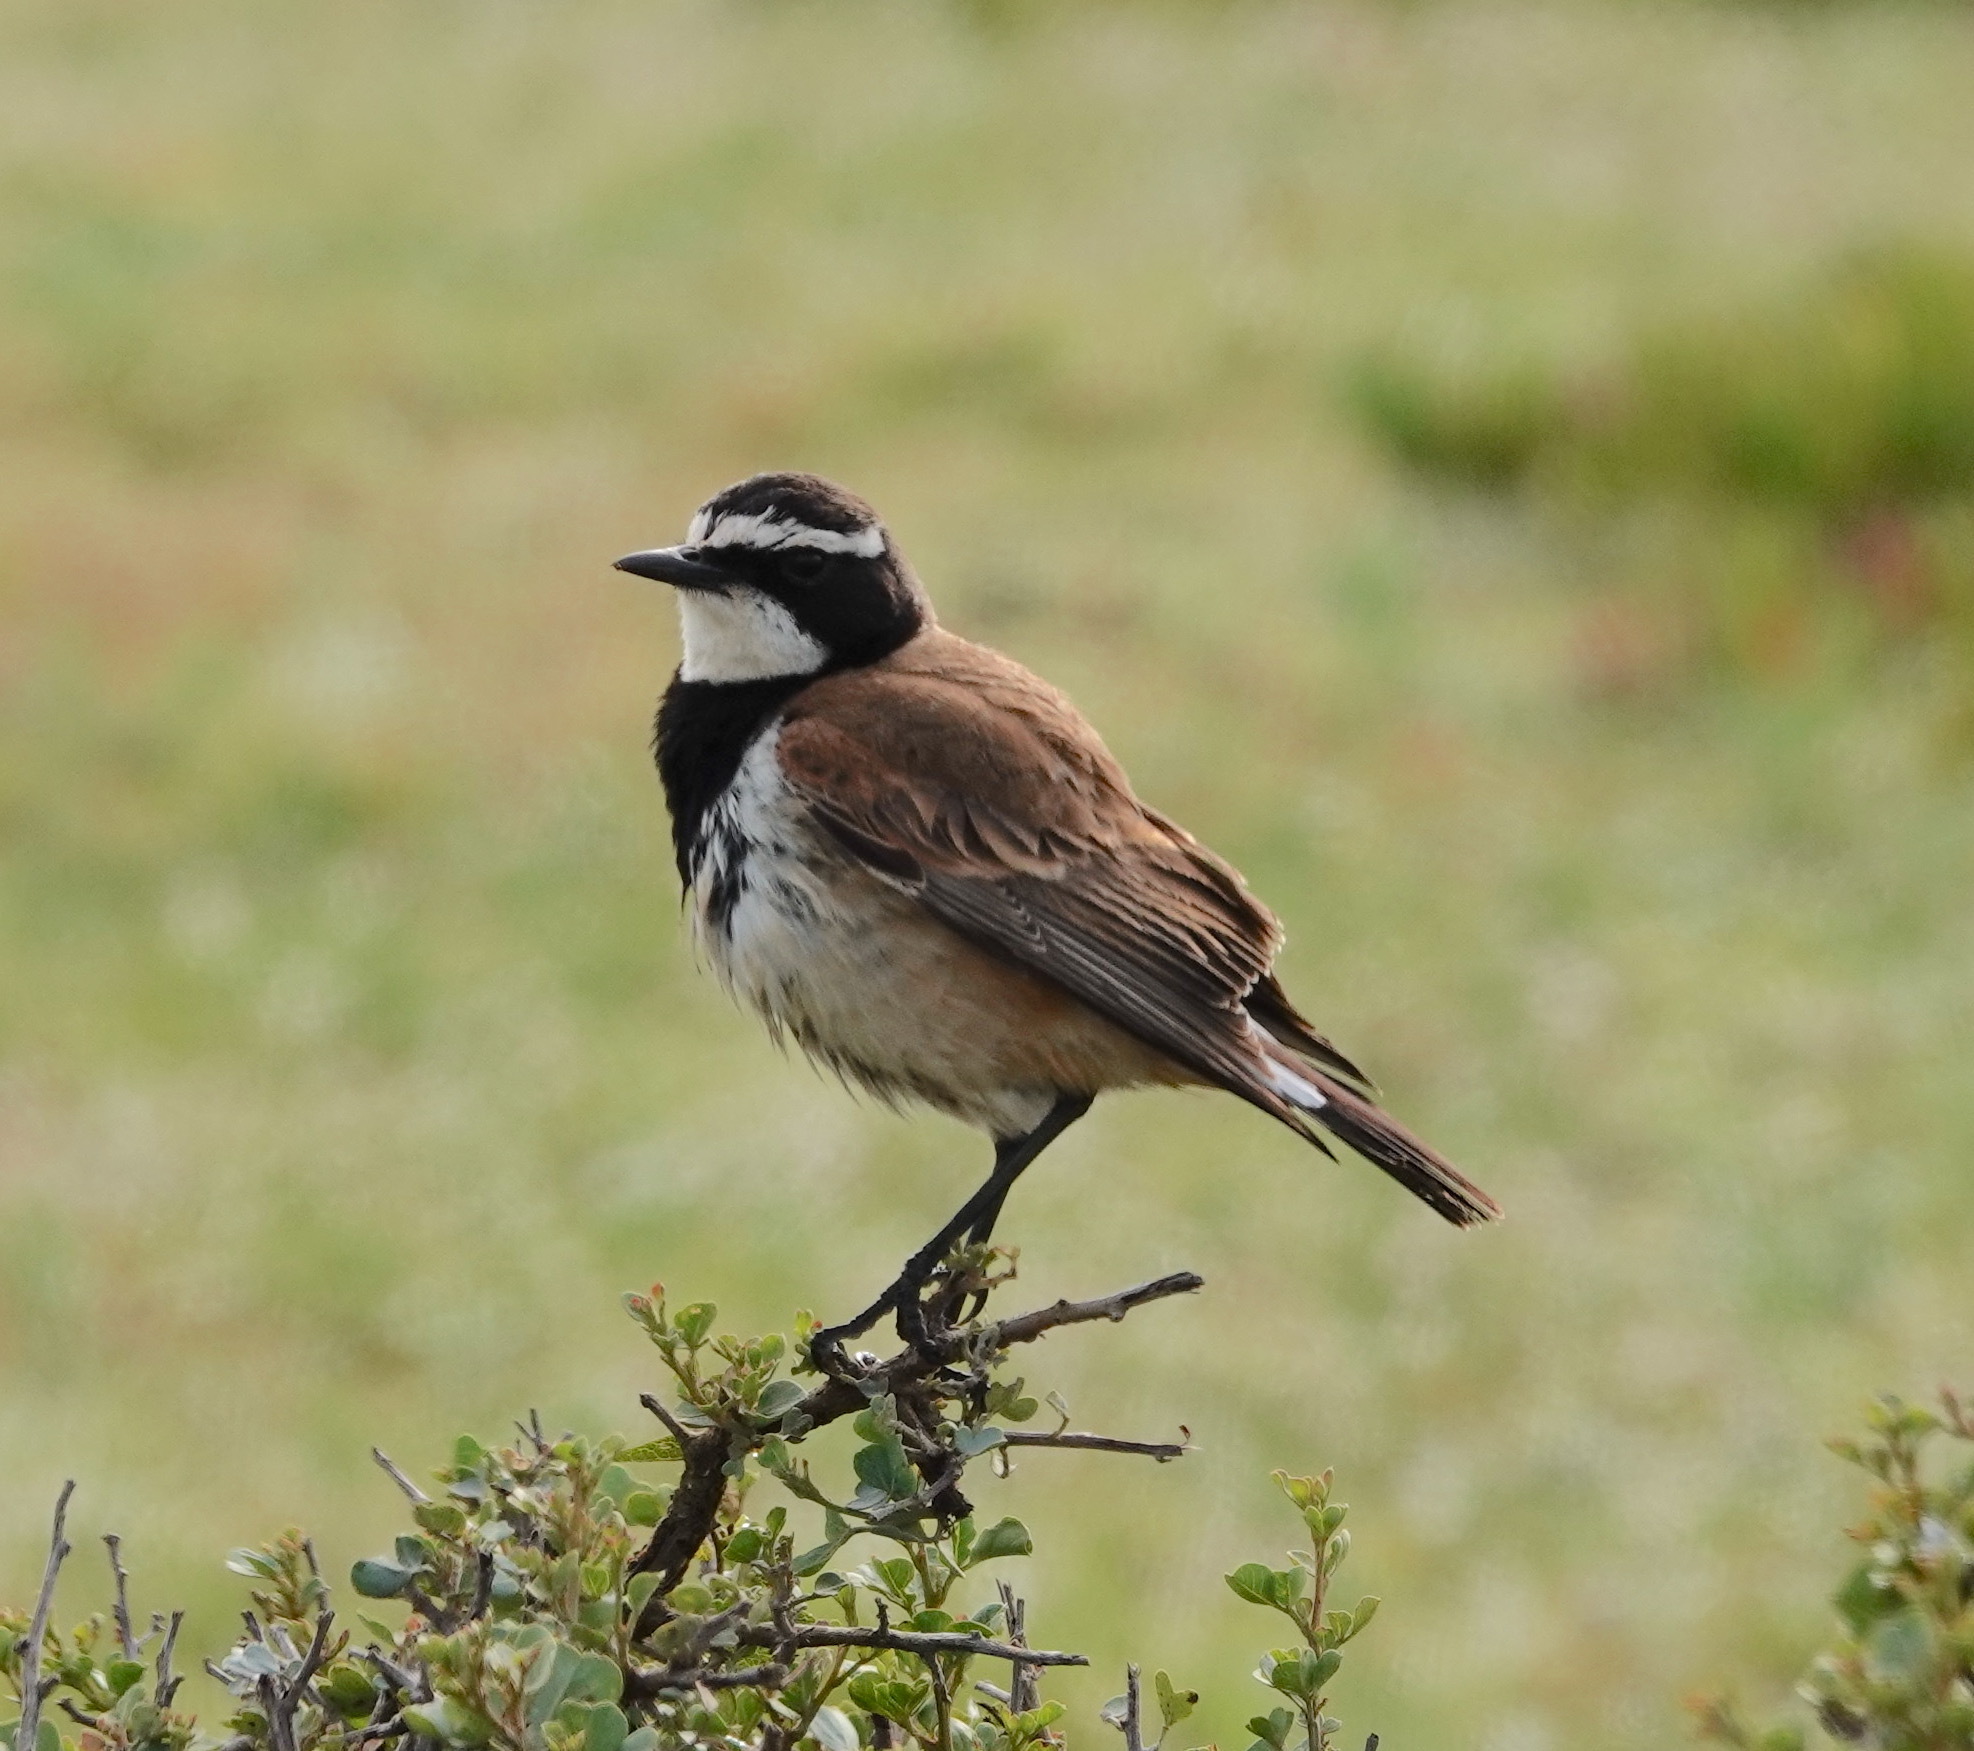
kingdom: Animalia
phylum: Chordata
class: Aves
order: Passeriformes
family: Muscicapidae
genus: Oenanthe
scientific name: Oenanthe pileata
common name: Capped wheatear
